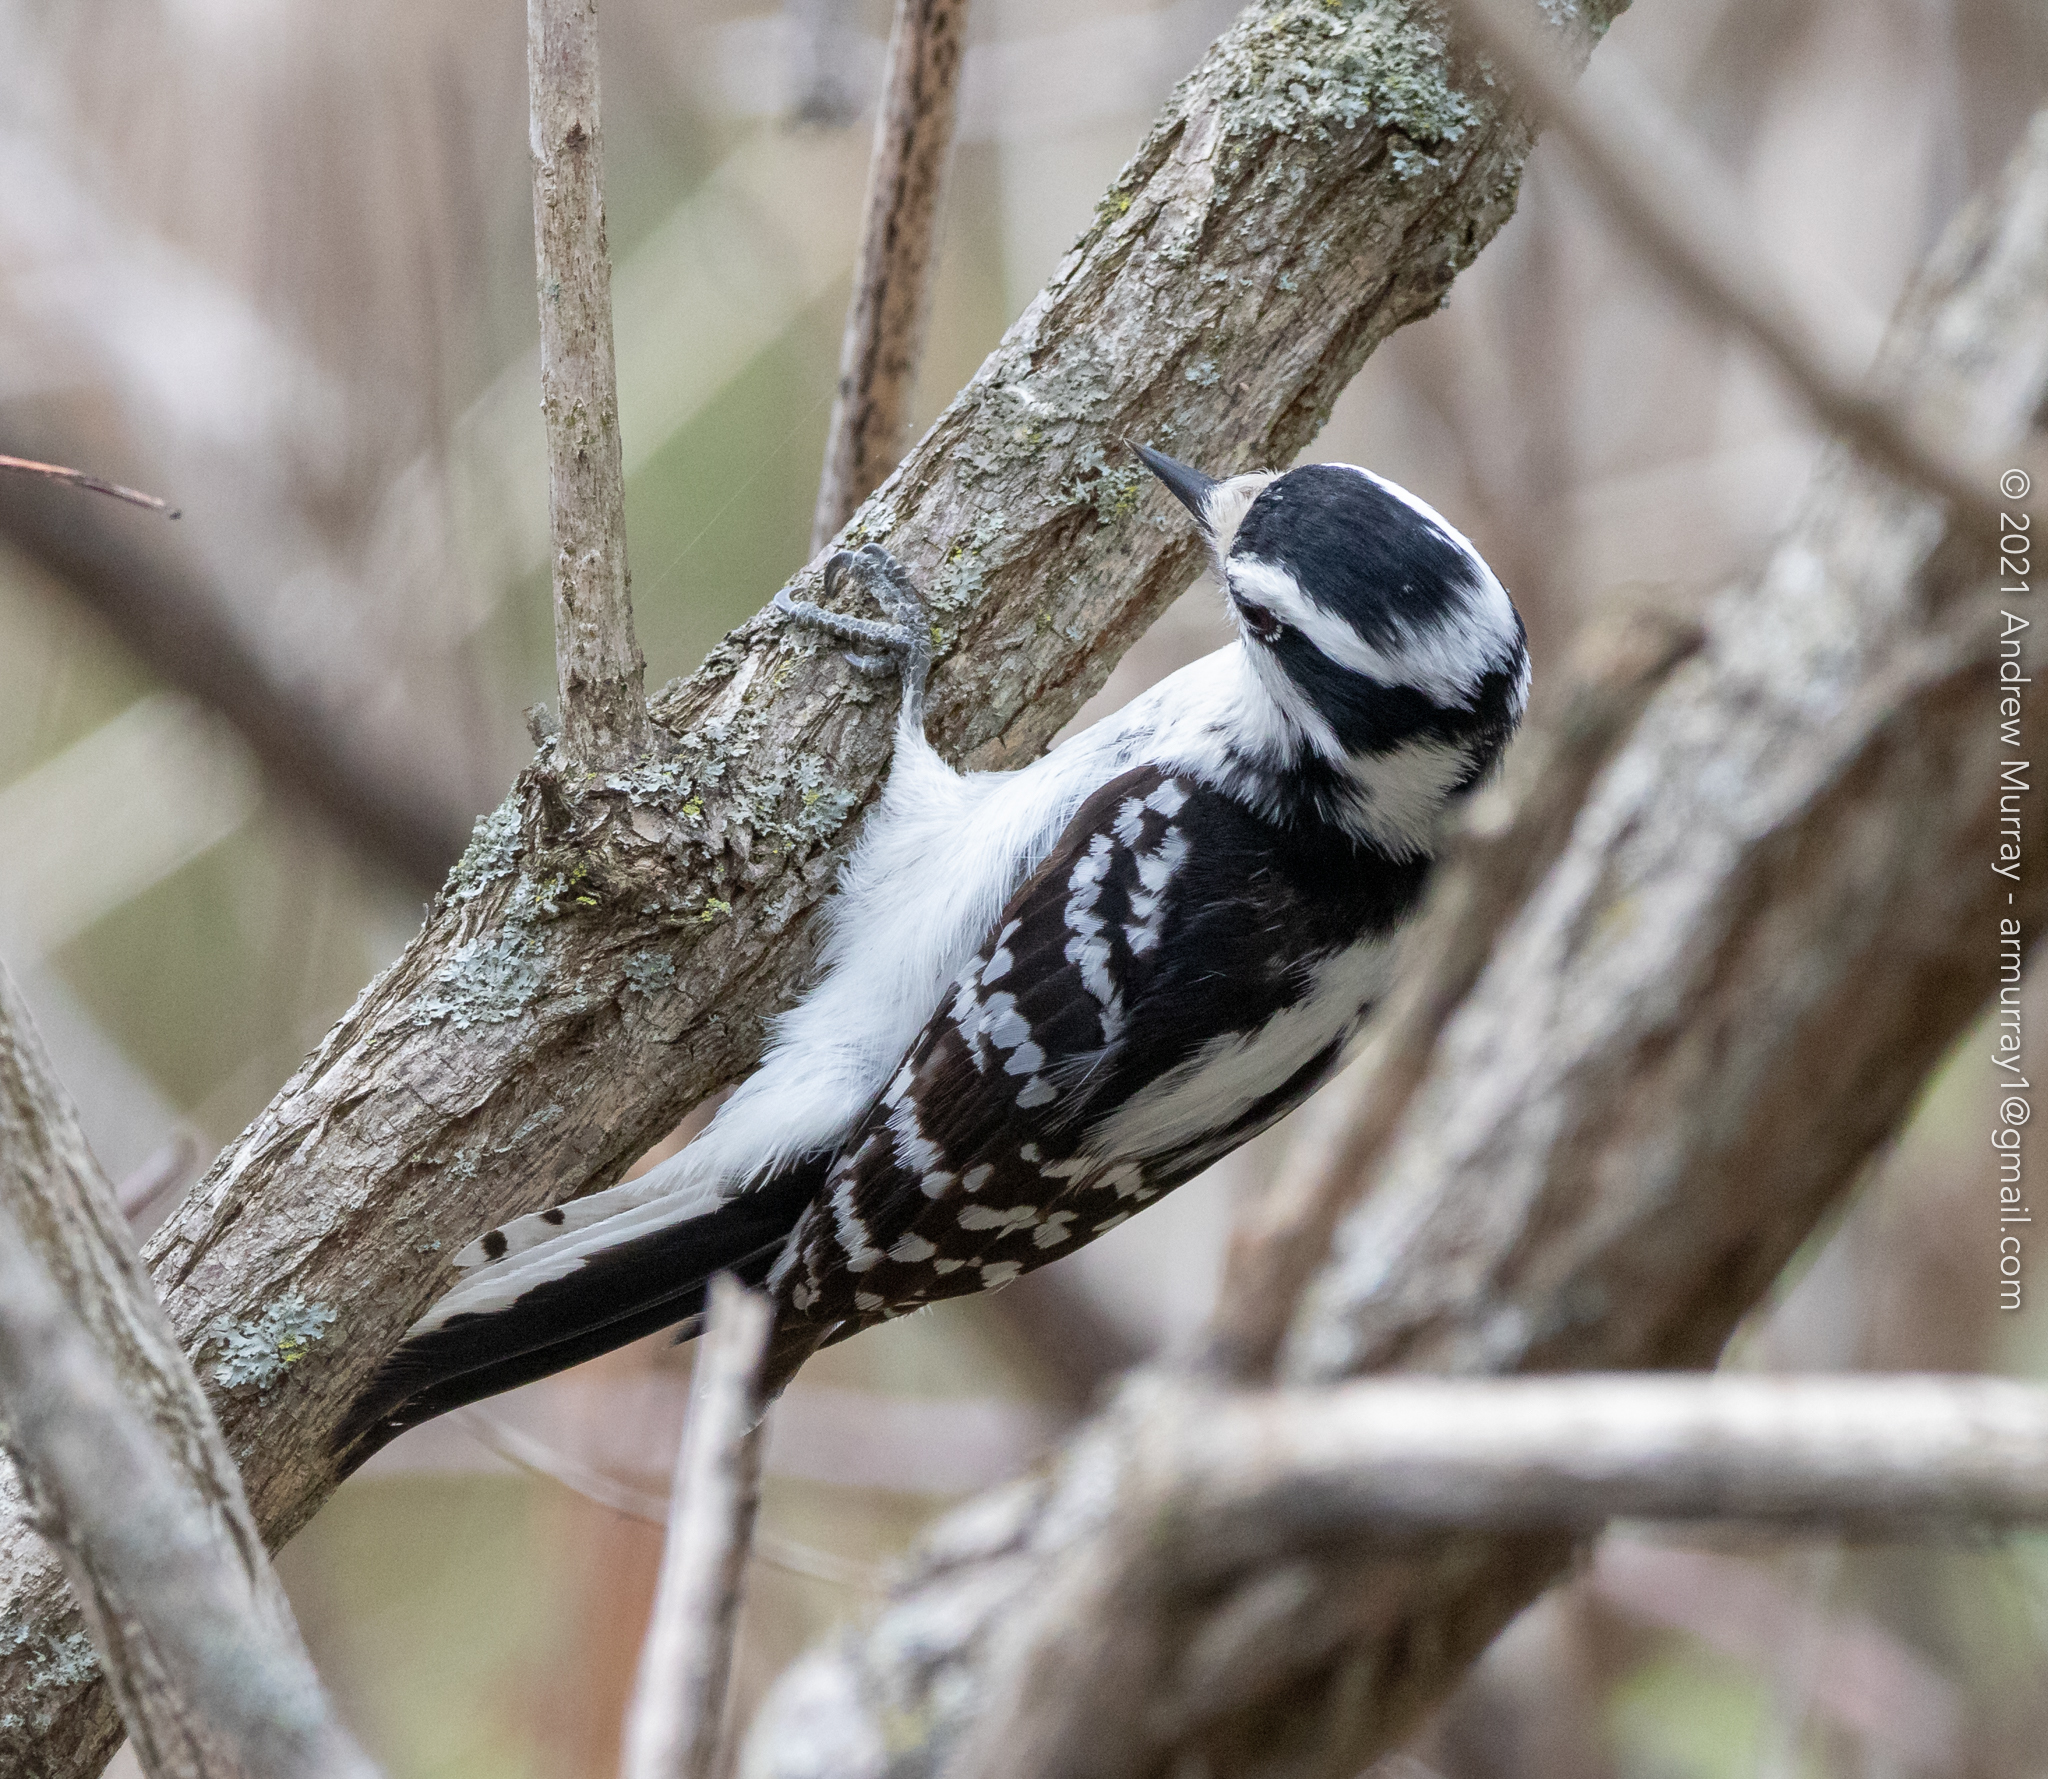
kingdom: Animalia
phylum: Chordata
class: Aves
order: Piciformes
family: Picidae
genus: Dryobates
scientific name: Dryobates pubescens
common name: Downy woodpecker
